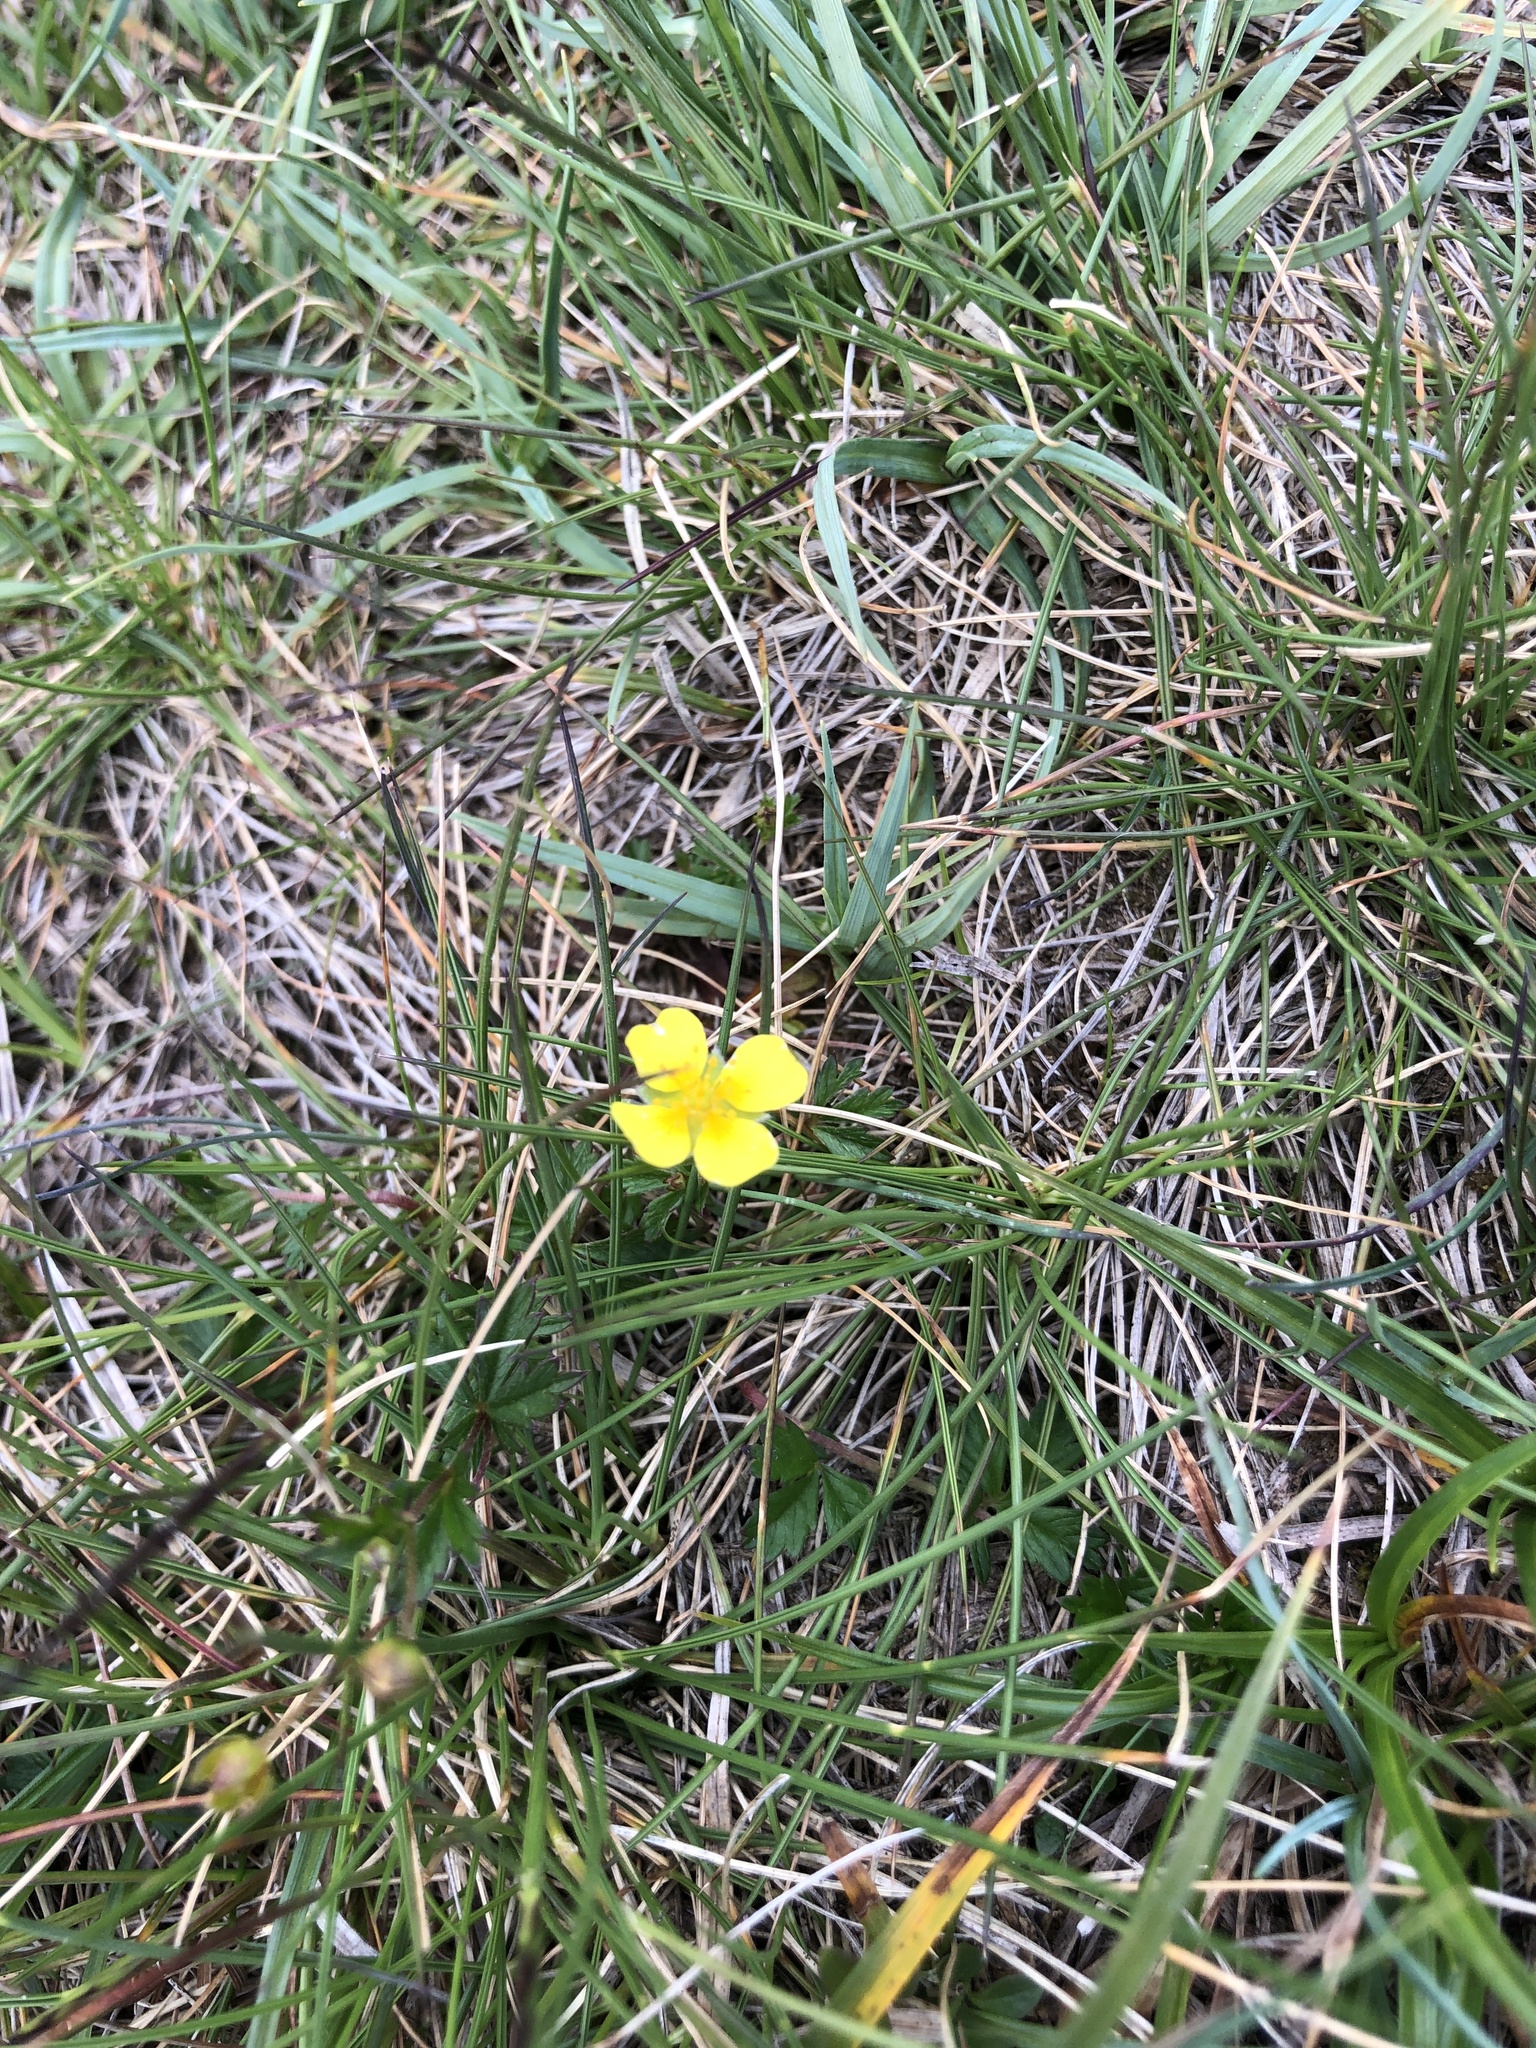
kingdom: Plantae
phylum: Tracheophyta
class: Magnoliopsida
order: Rosales
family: Rosaceae
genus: Potentilla
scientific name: Potentilla erecta
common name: Tormentil
